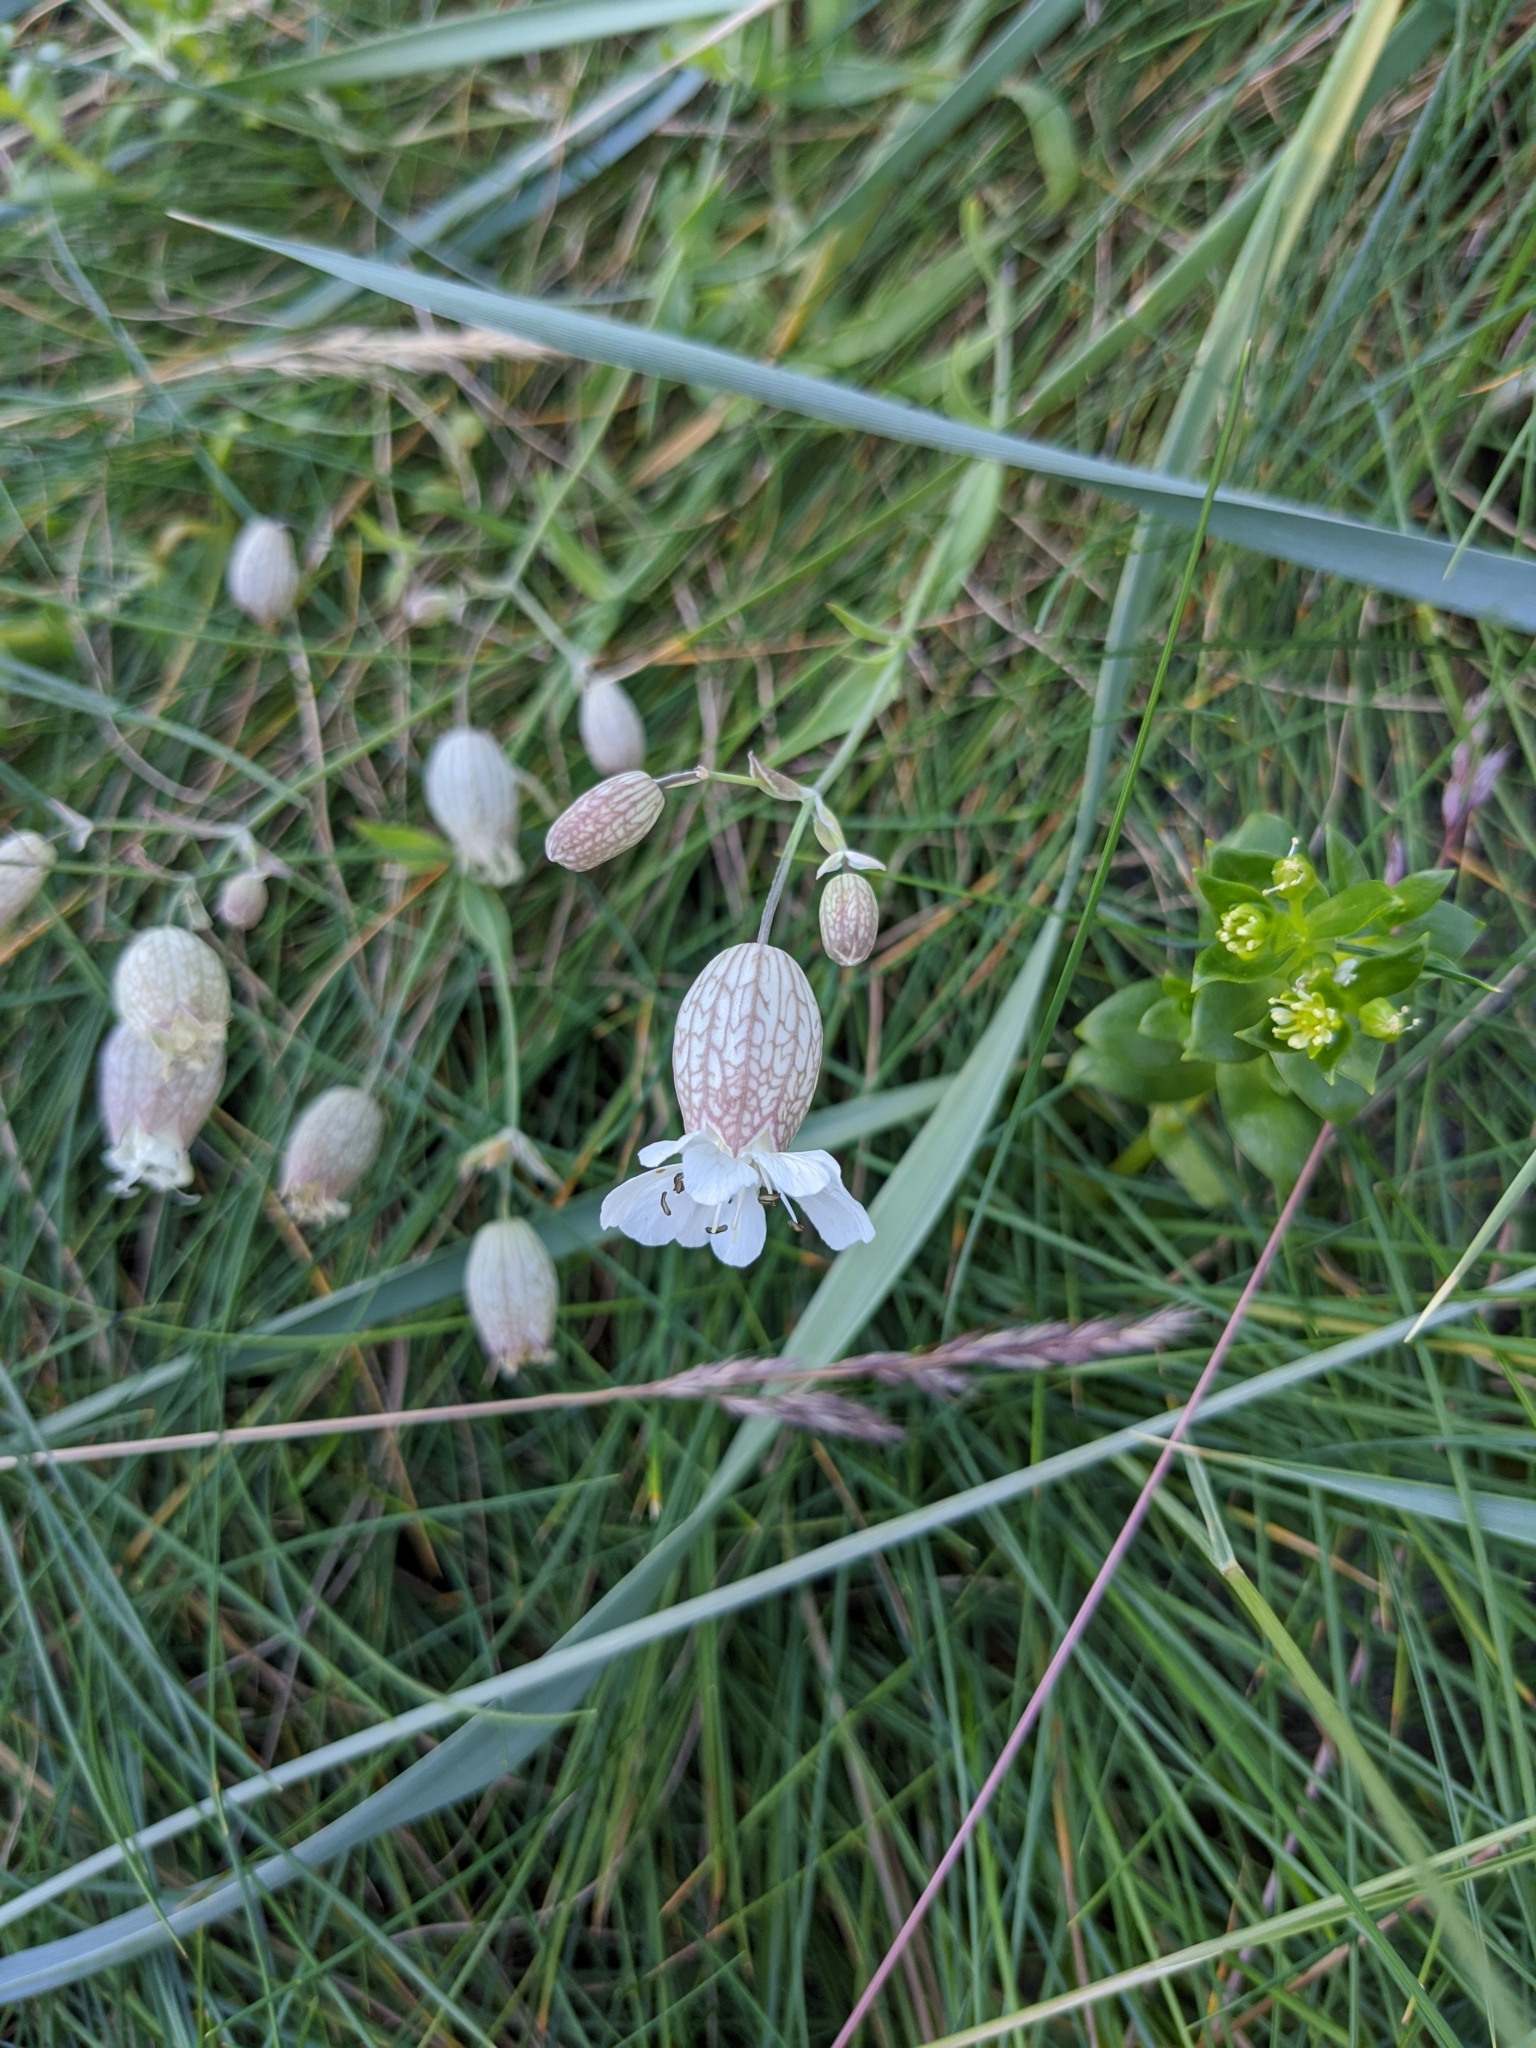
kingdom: Plantae
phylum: Tracheophyta
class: Magnoliopsida
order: Caryophyllales
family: Caryophyllaceae
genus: Silene
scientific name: Silene uniflora
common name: Sea campion
